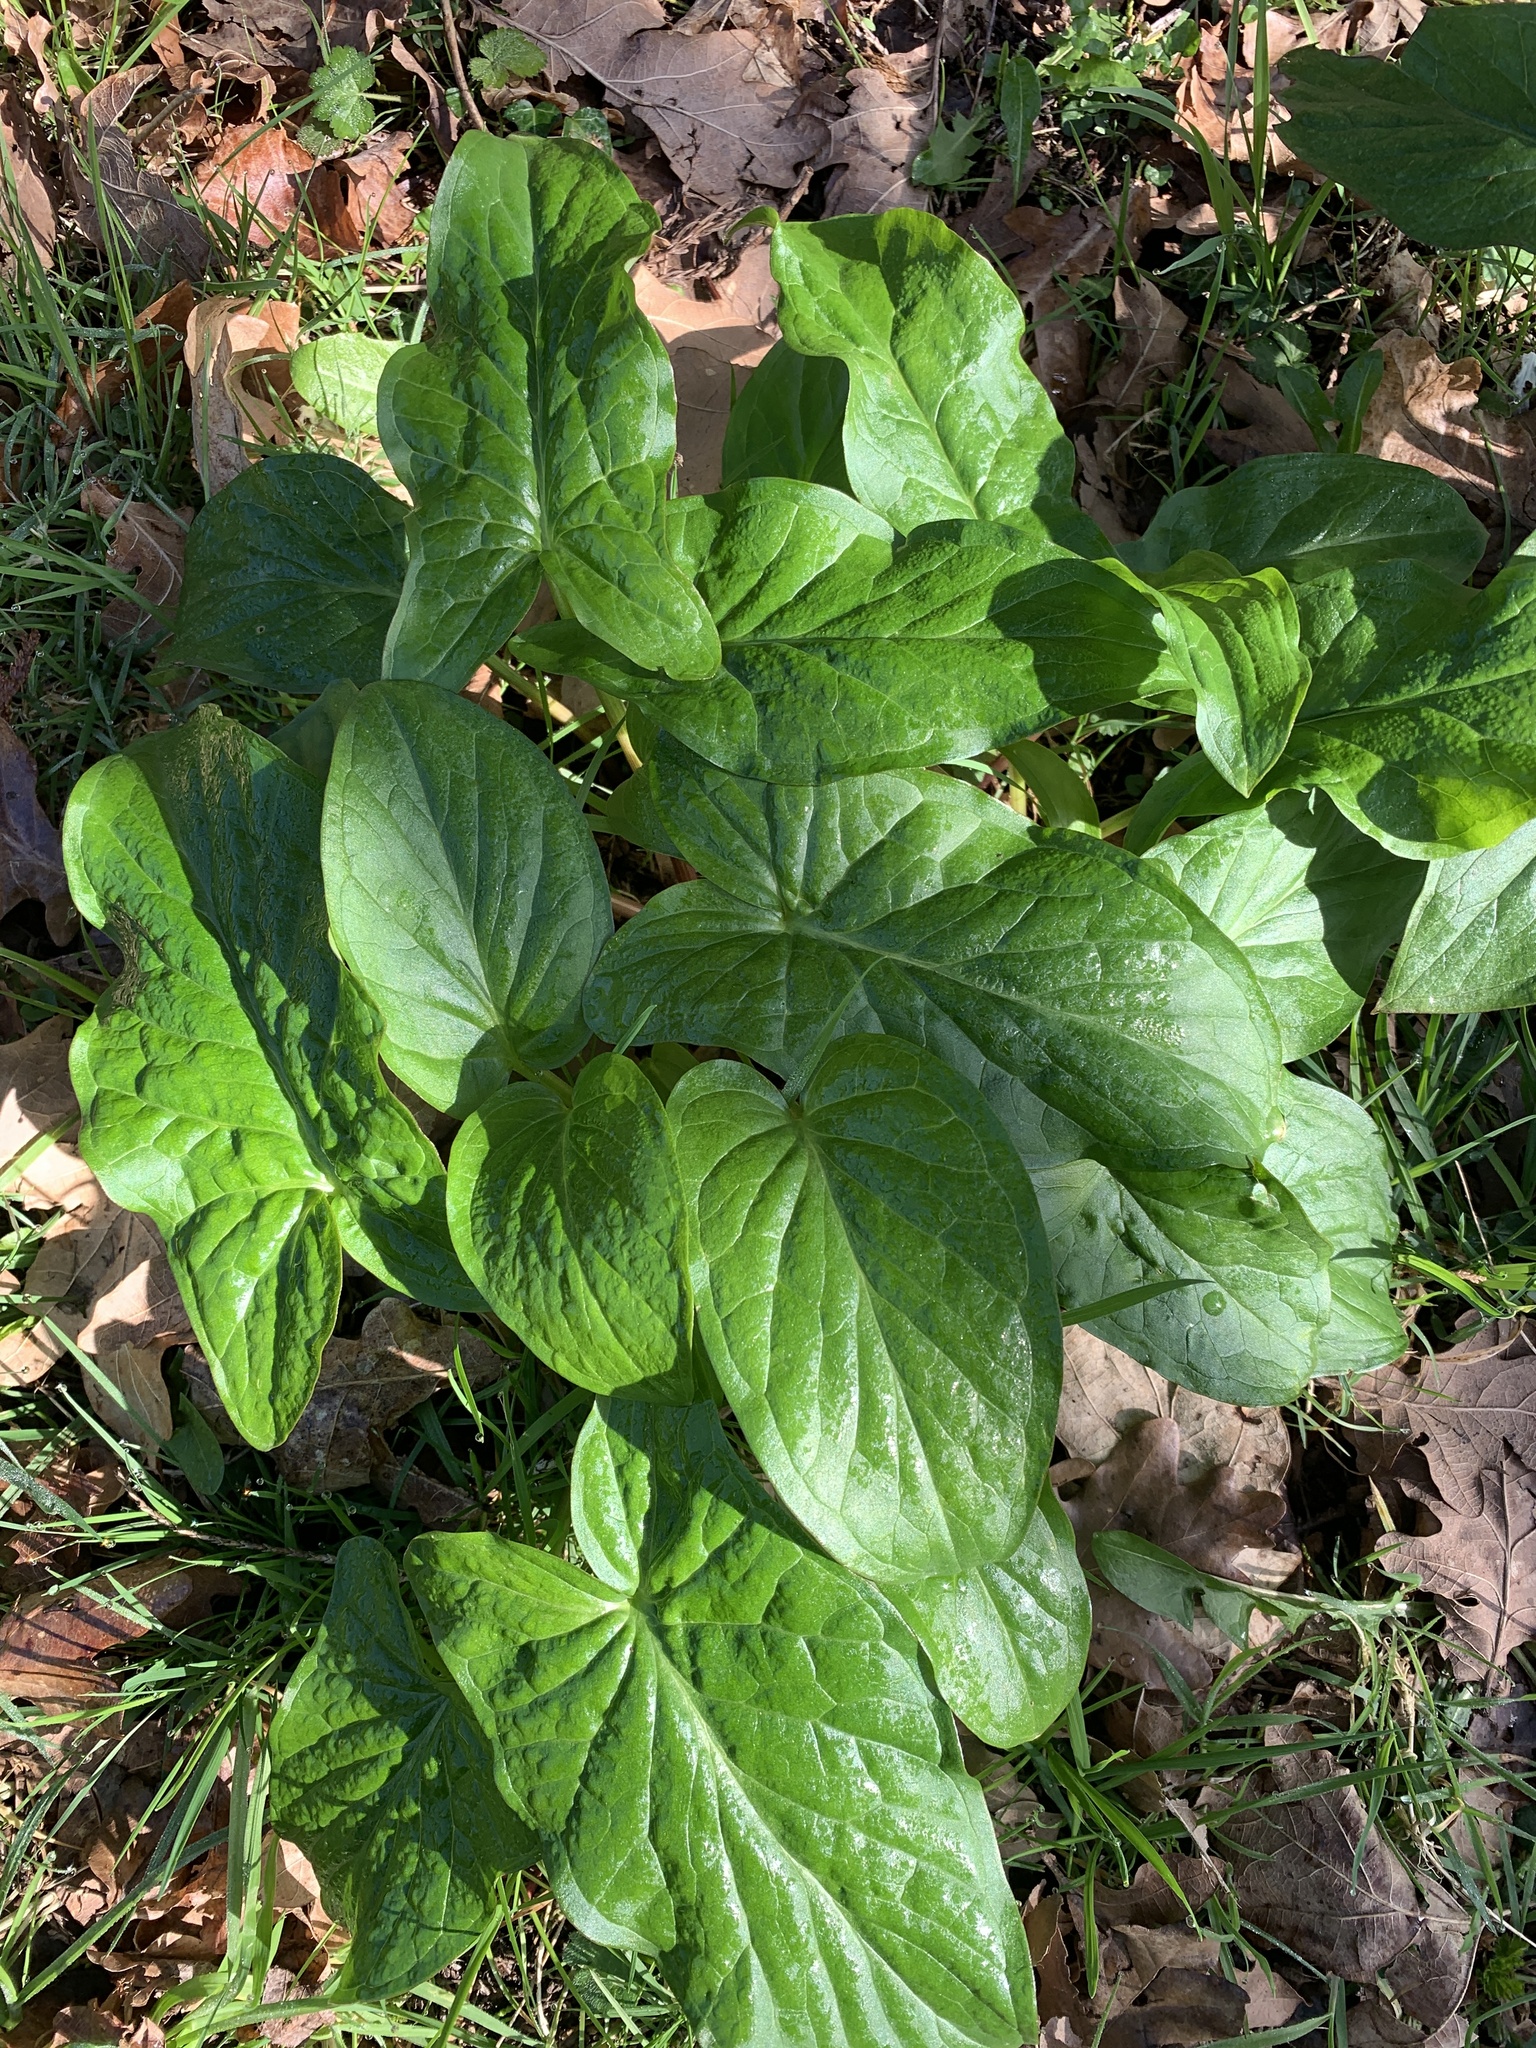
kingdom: Plantae
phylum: Tracheophyta
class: Liliopsida
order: Alismatales
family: Araceae
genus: Arum
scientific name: Arum maculatum
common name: Lords-and-ladies
